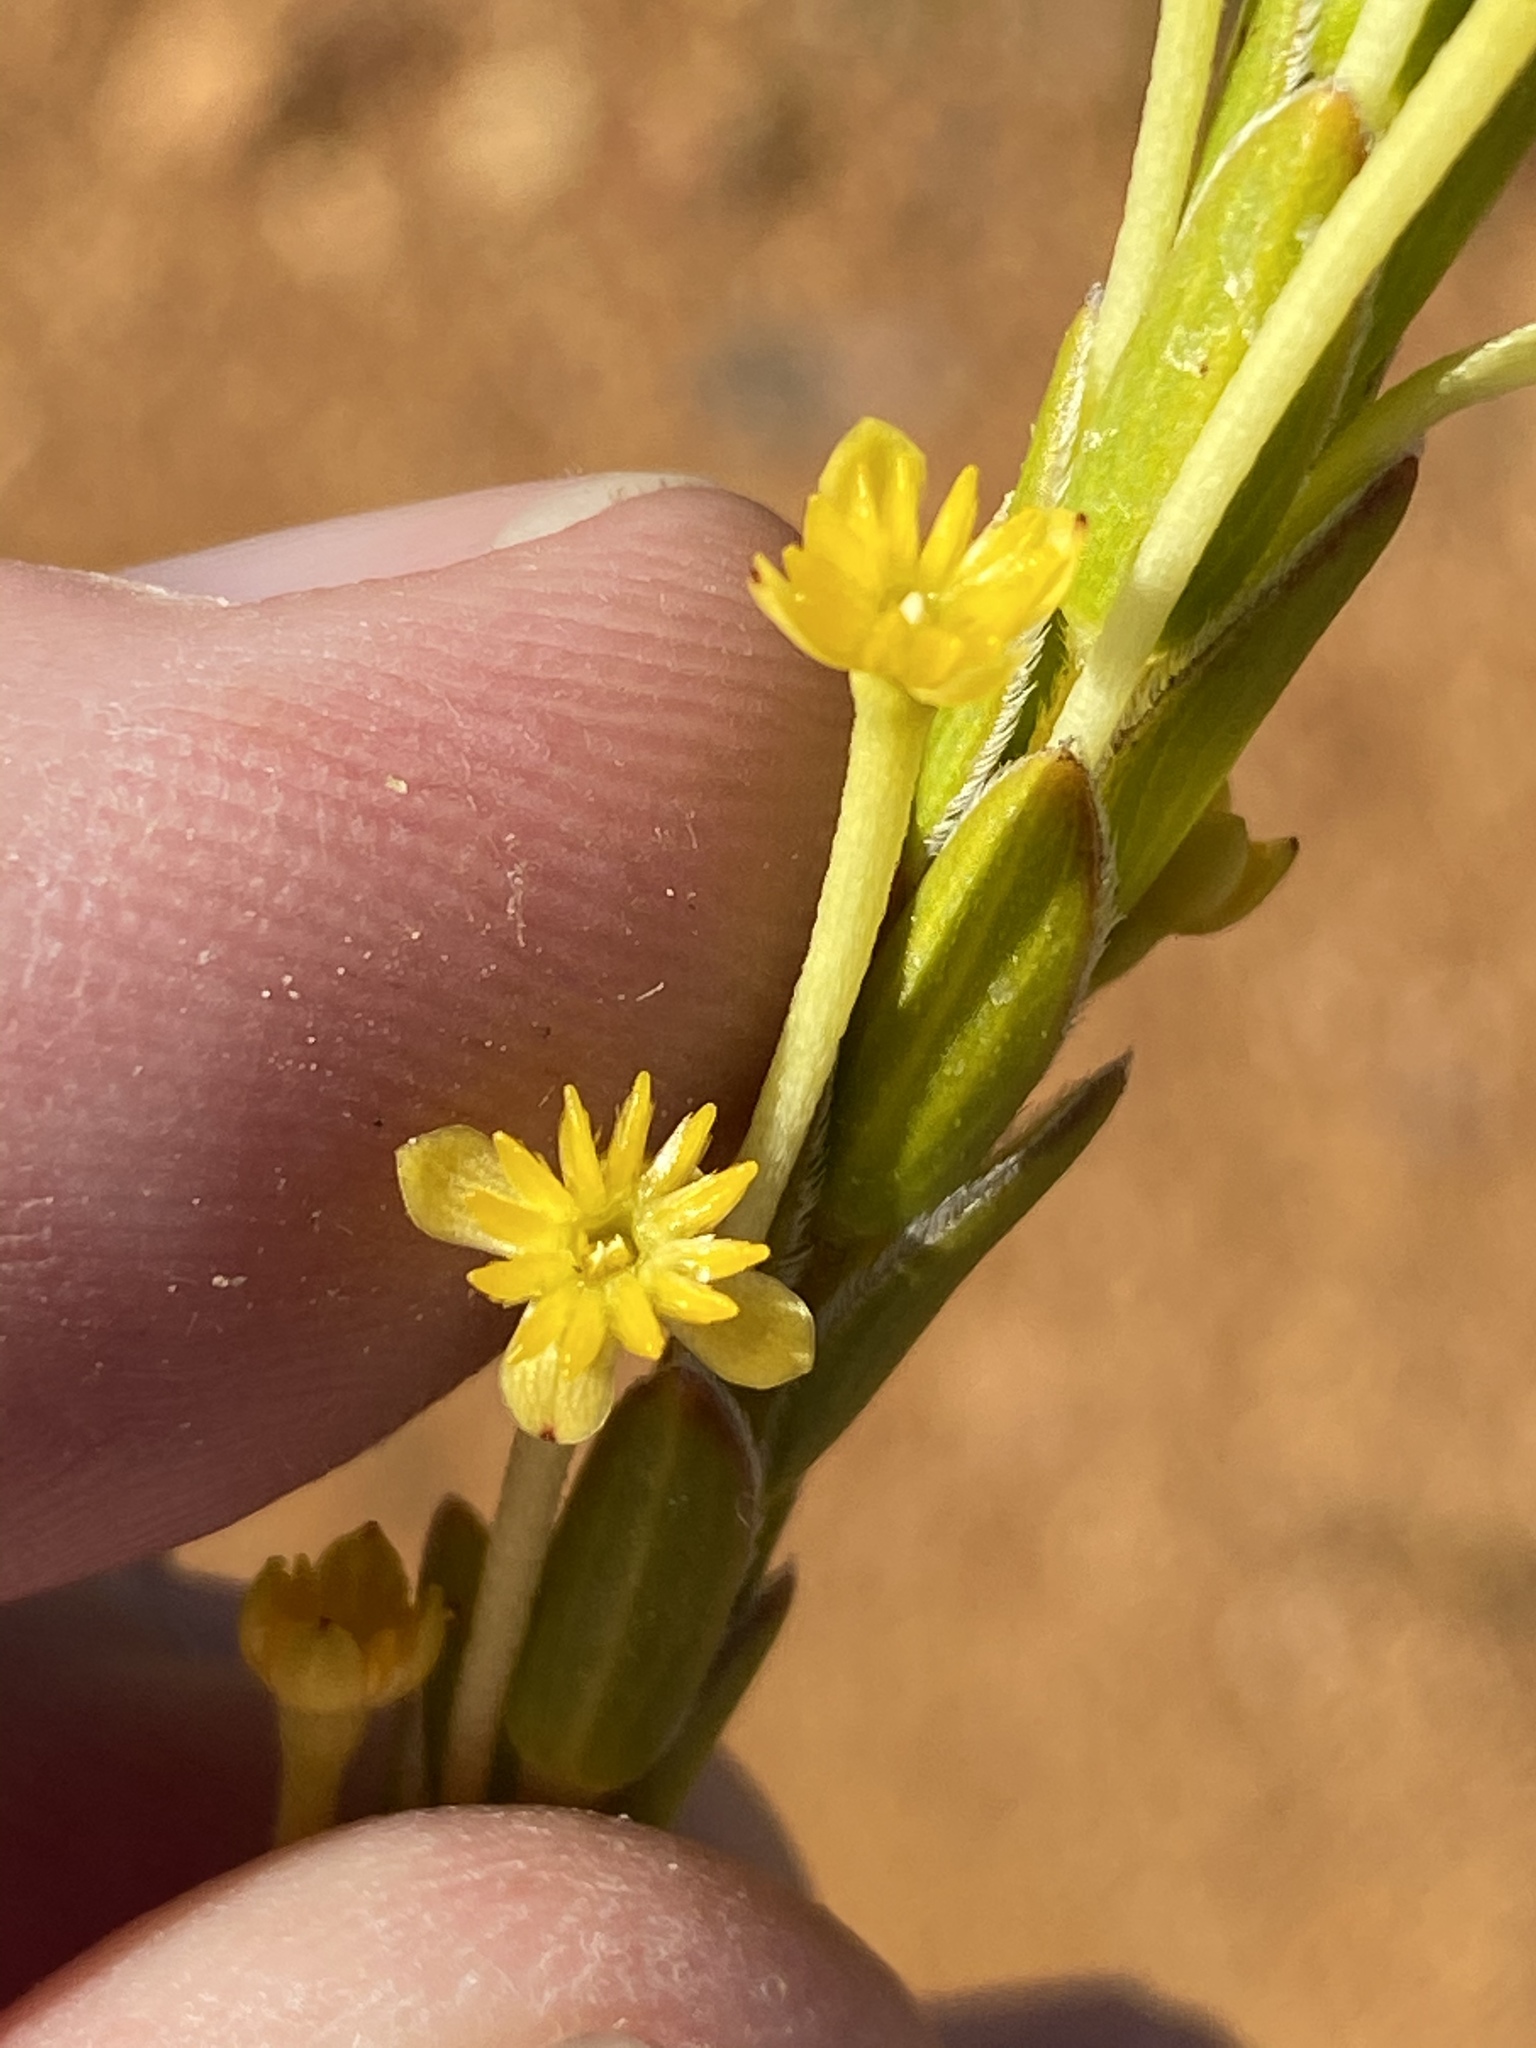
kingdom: Plantae
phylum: Tracheophyta
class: Magnoliopsida
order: Malvales
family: Thymelaeaceae
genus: Struthiola
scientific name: Struthiola argentea
